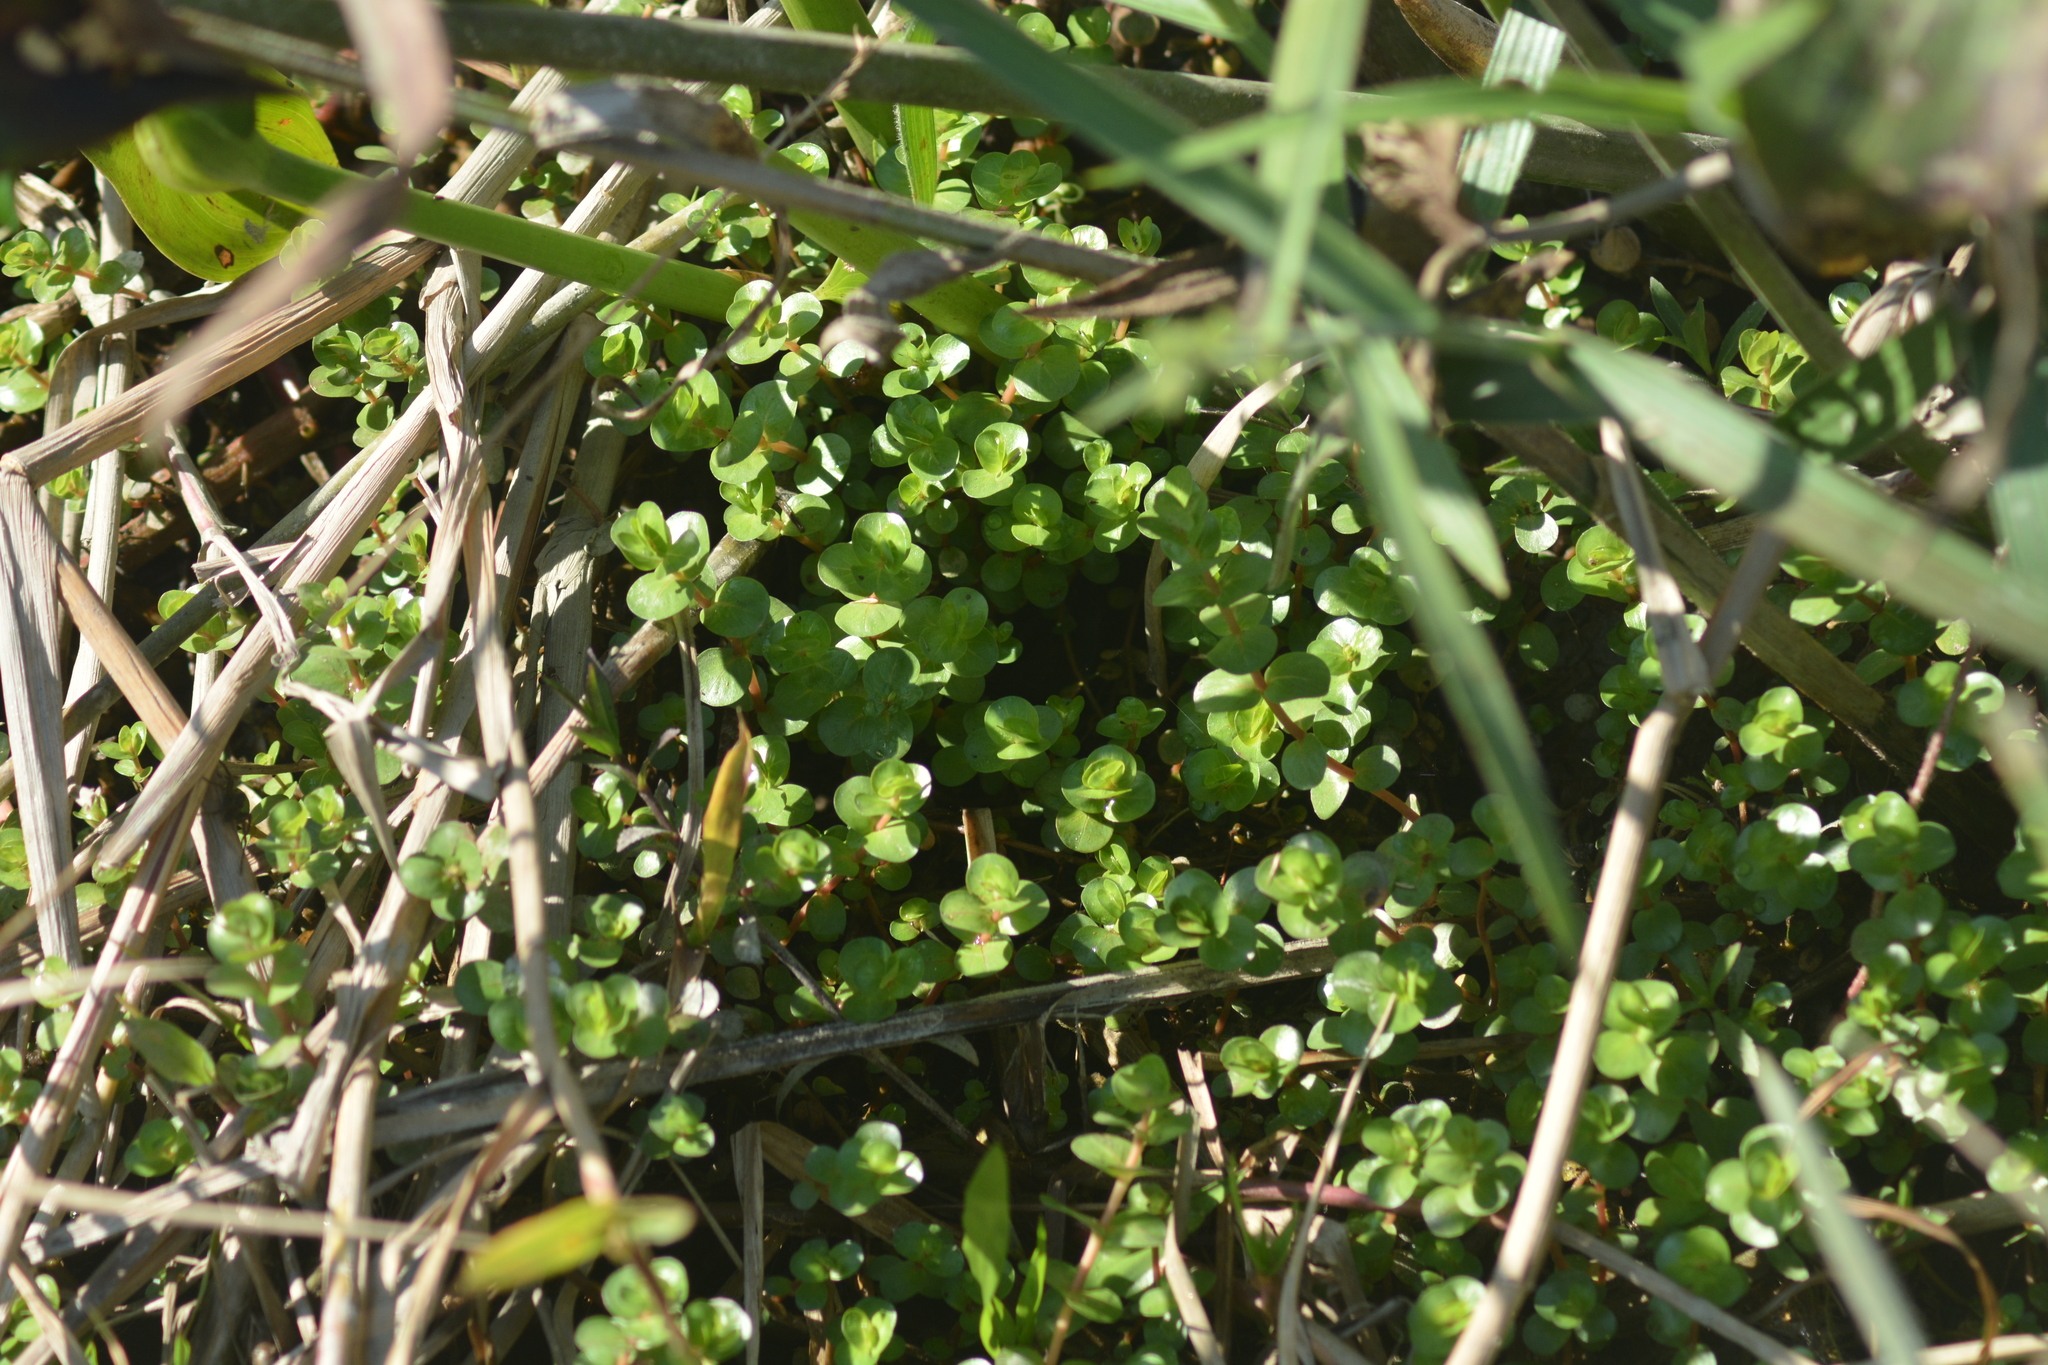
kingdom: Plantae
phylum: Tracheophyta
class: Magnoliopsida
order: Myrtales
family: Lythraceae
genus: Rotala
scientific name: Rotala rotundifolia
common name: Roundleaf toothcup
